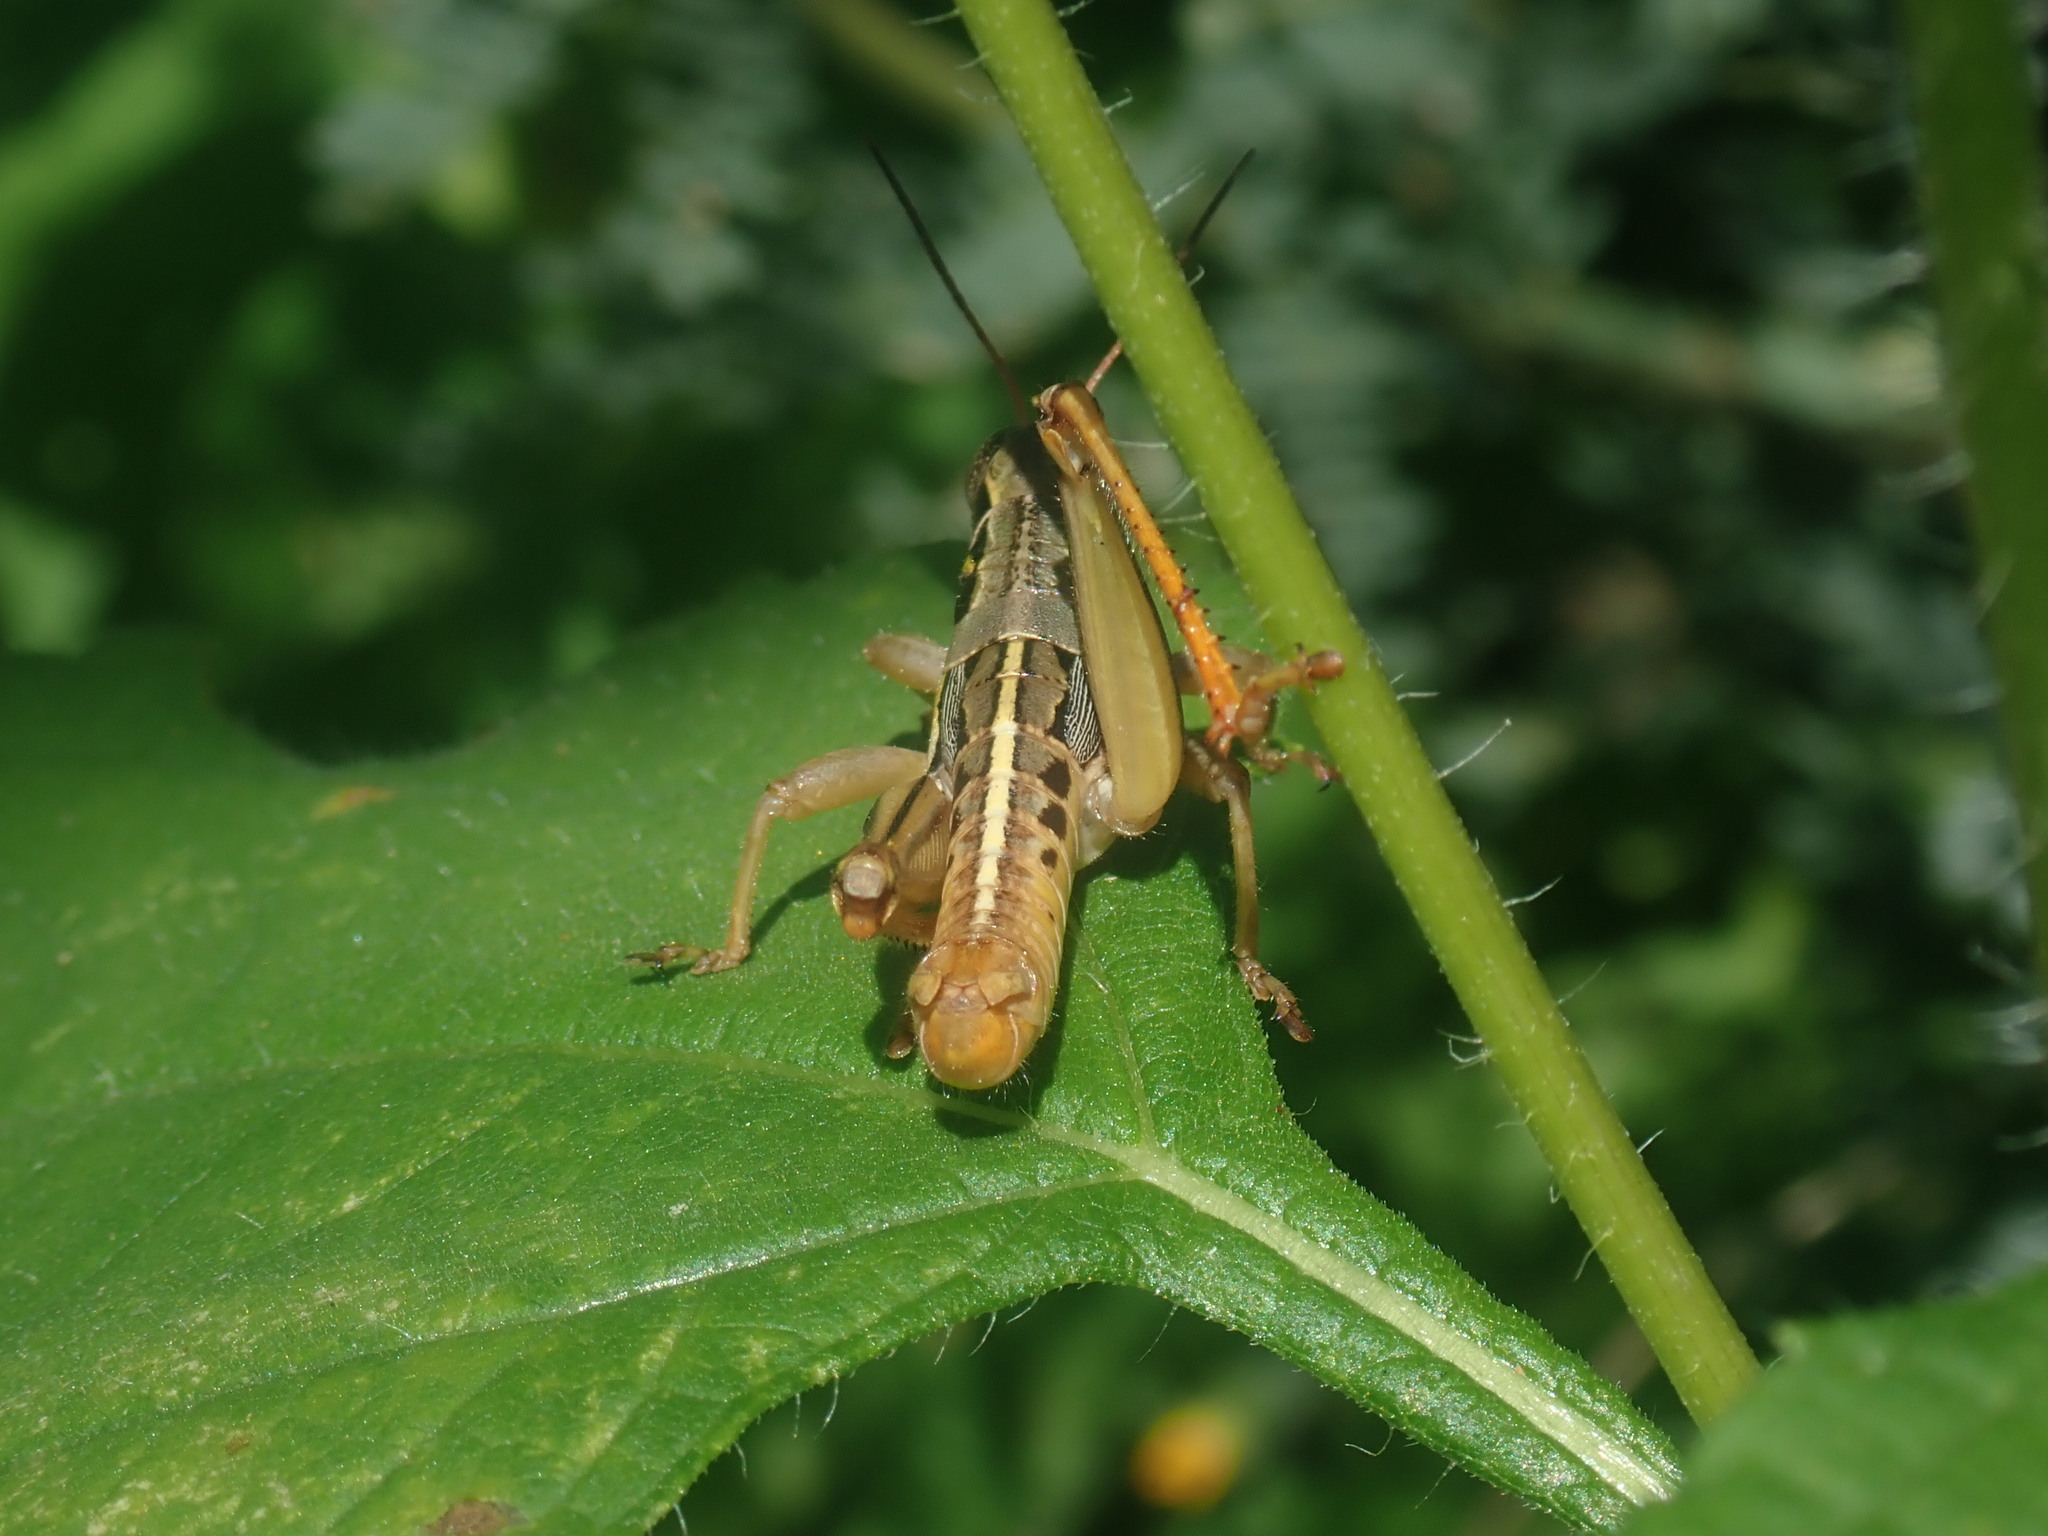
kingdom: Animalia
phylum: Arthropoda
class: Insecta
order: Orthoptera
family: Acrididae
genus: Barytettix
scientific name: Barytettix humphreysii
